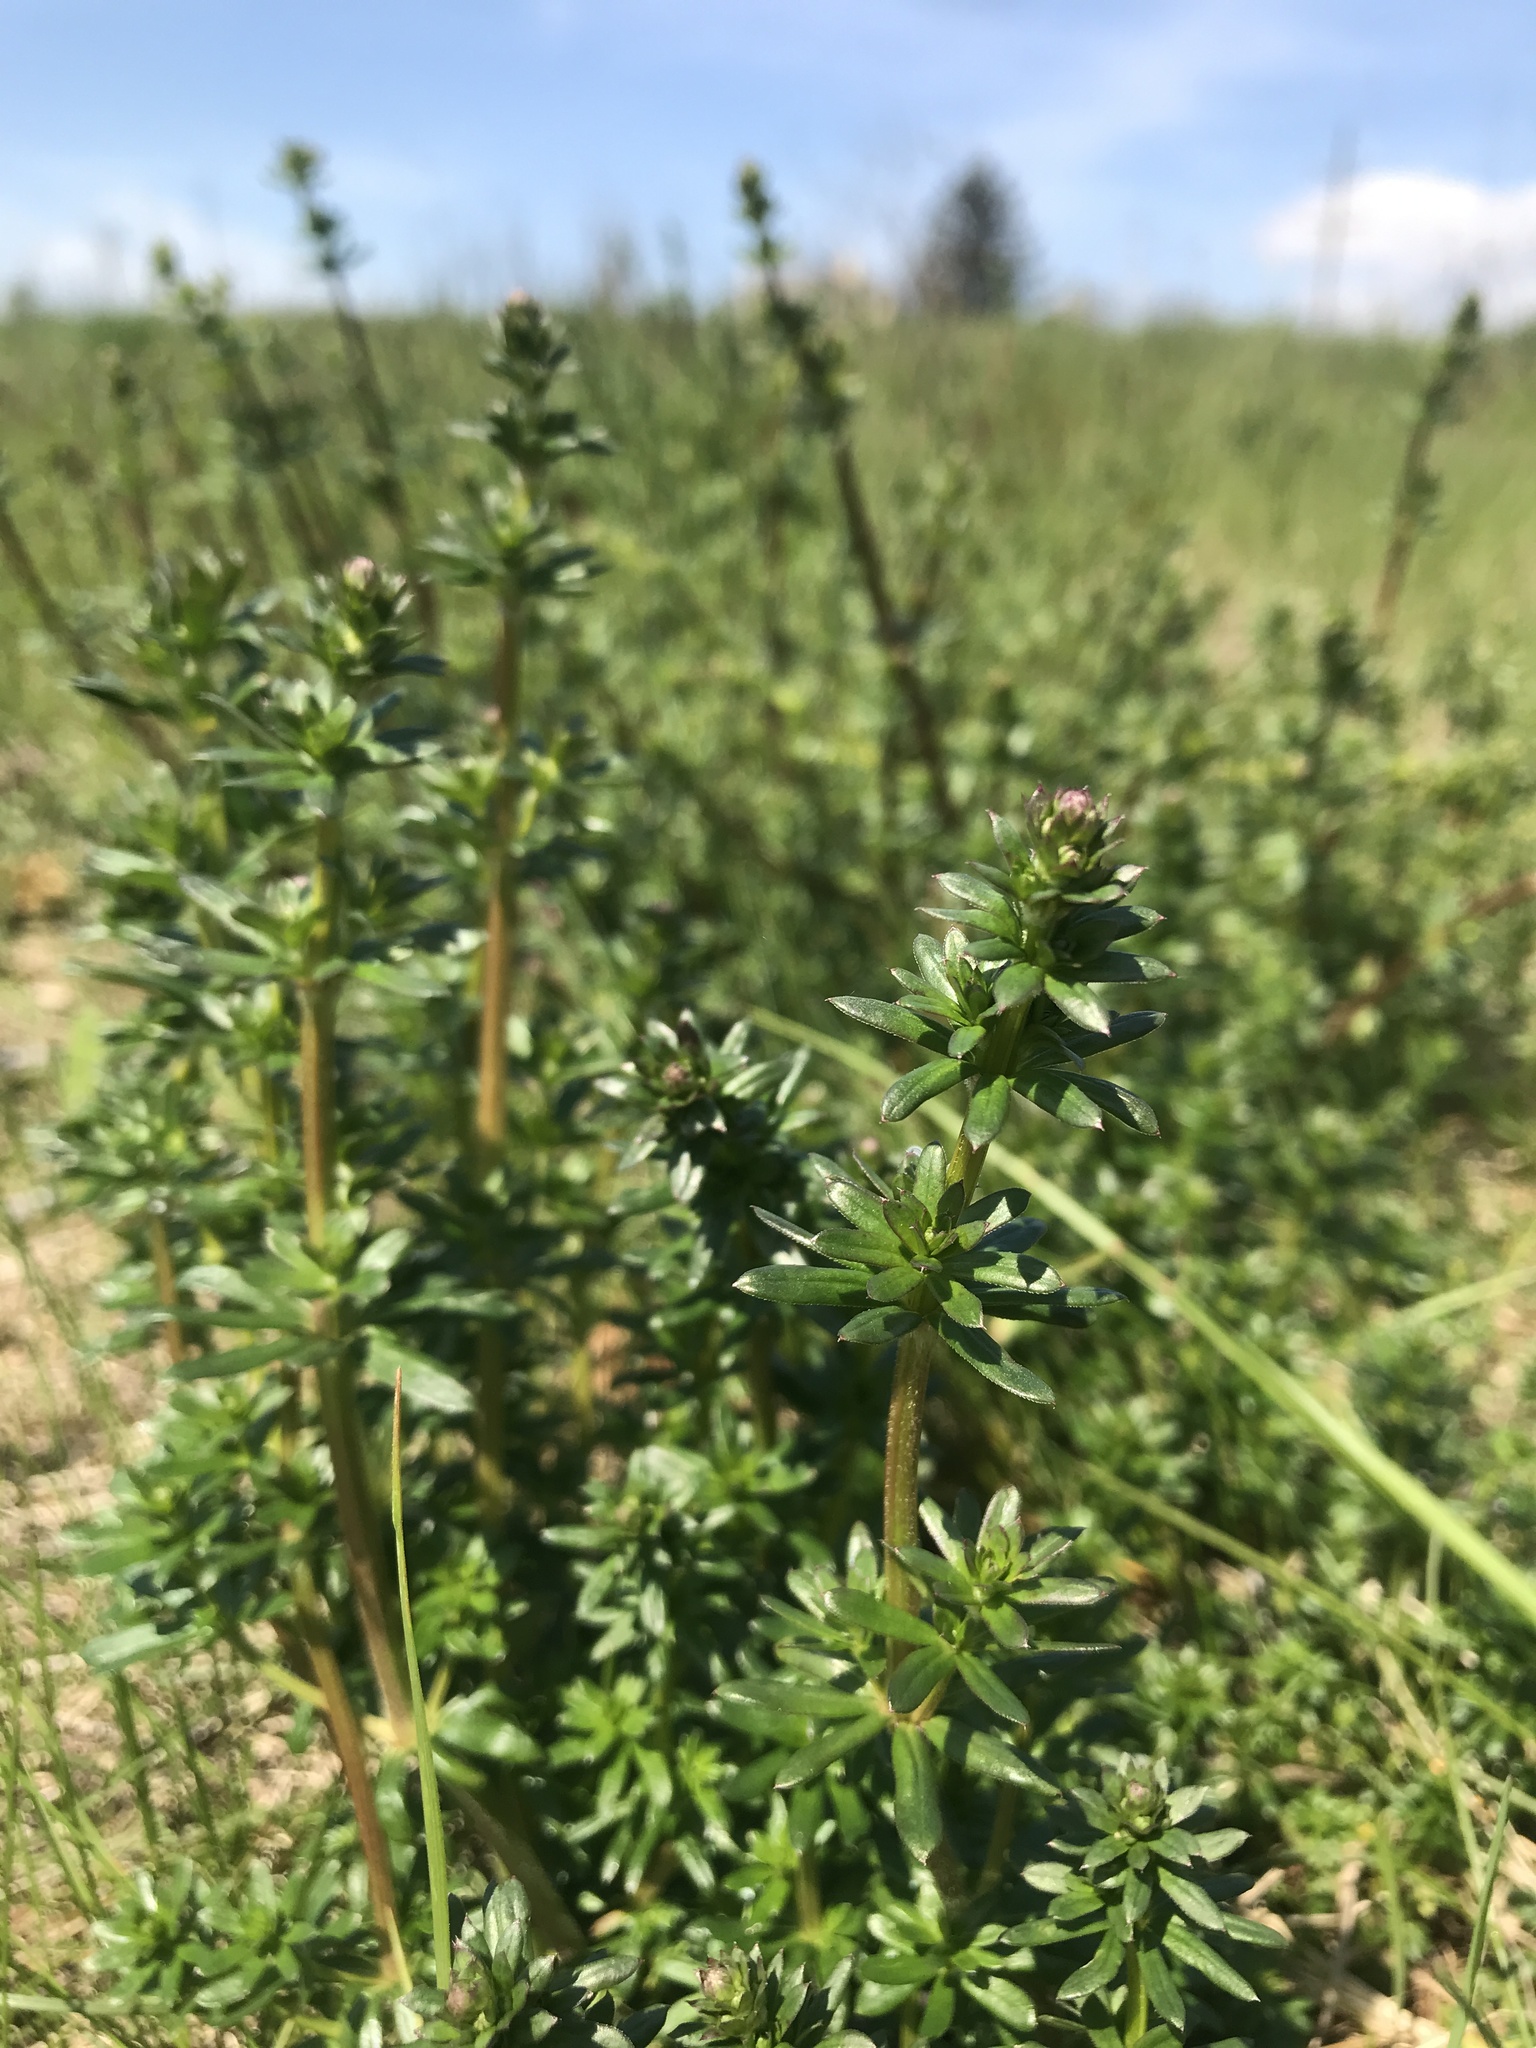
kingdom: Plantae
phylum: Tracheophyta
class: Magnoliopsida
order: Gentianales
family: Rubiaceae
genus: Galium
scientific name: Galium mollugo
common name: Hedge bedstraw
